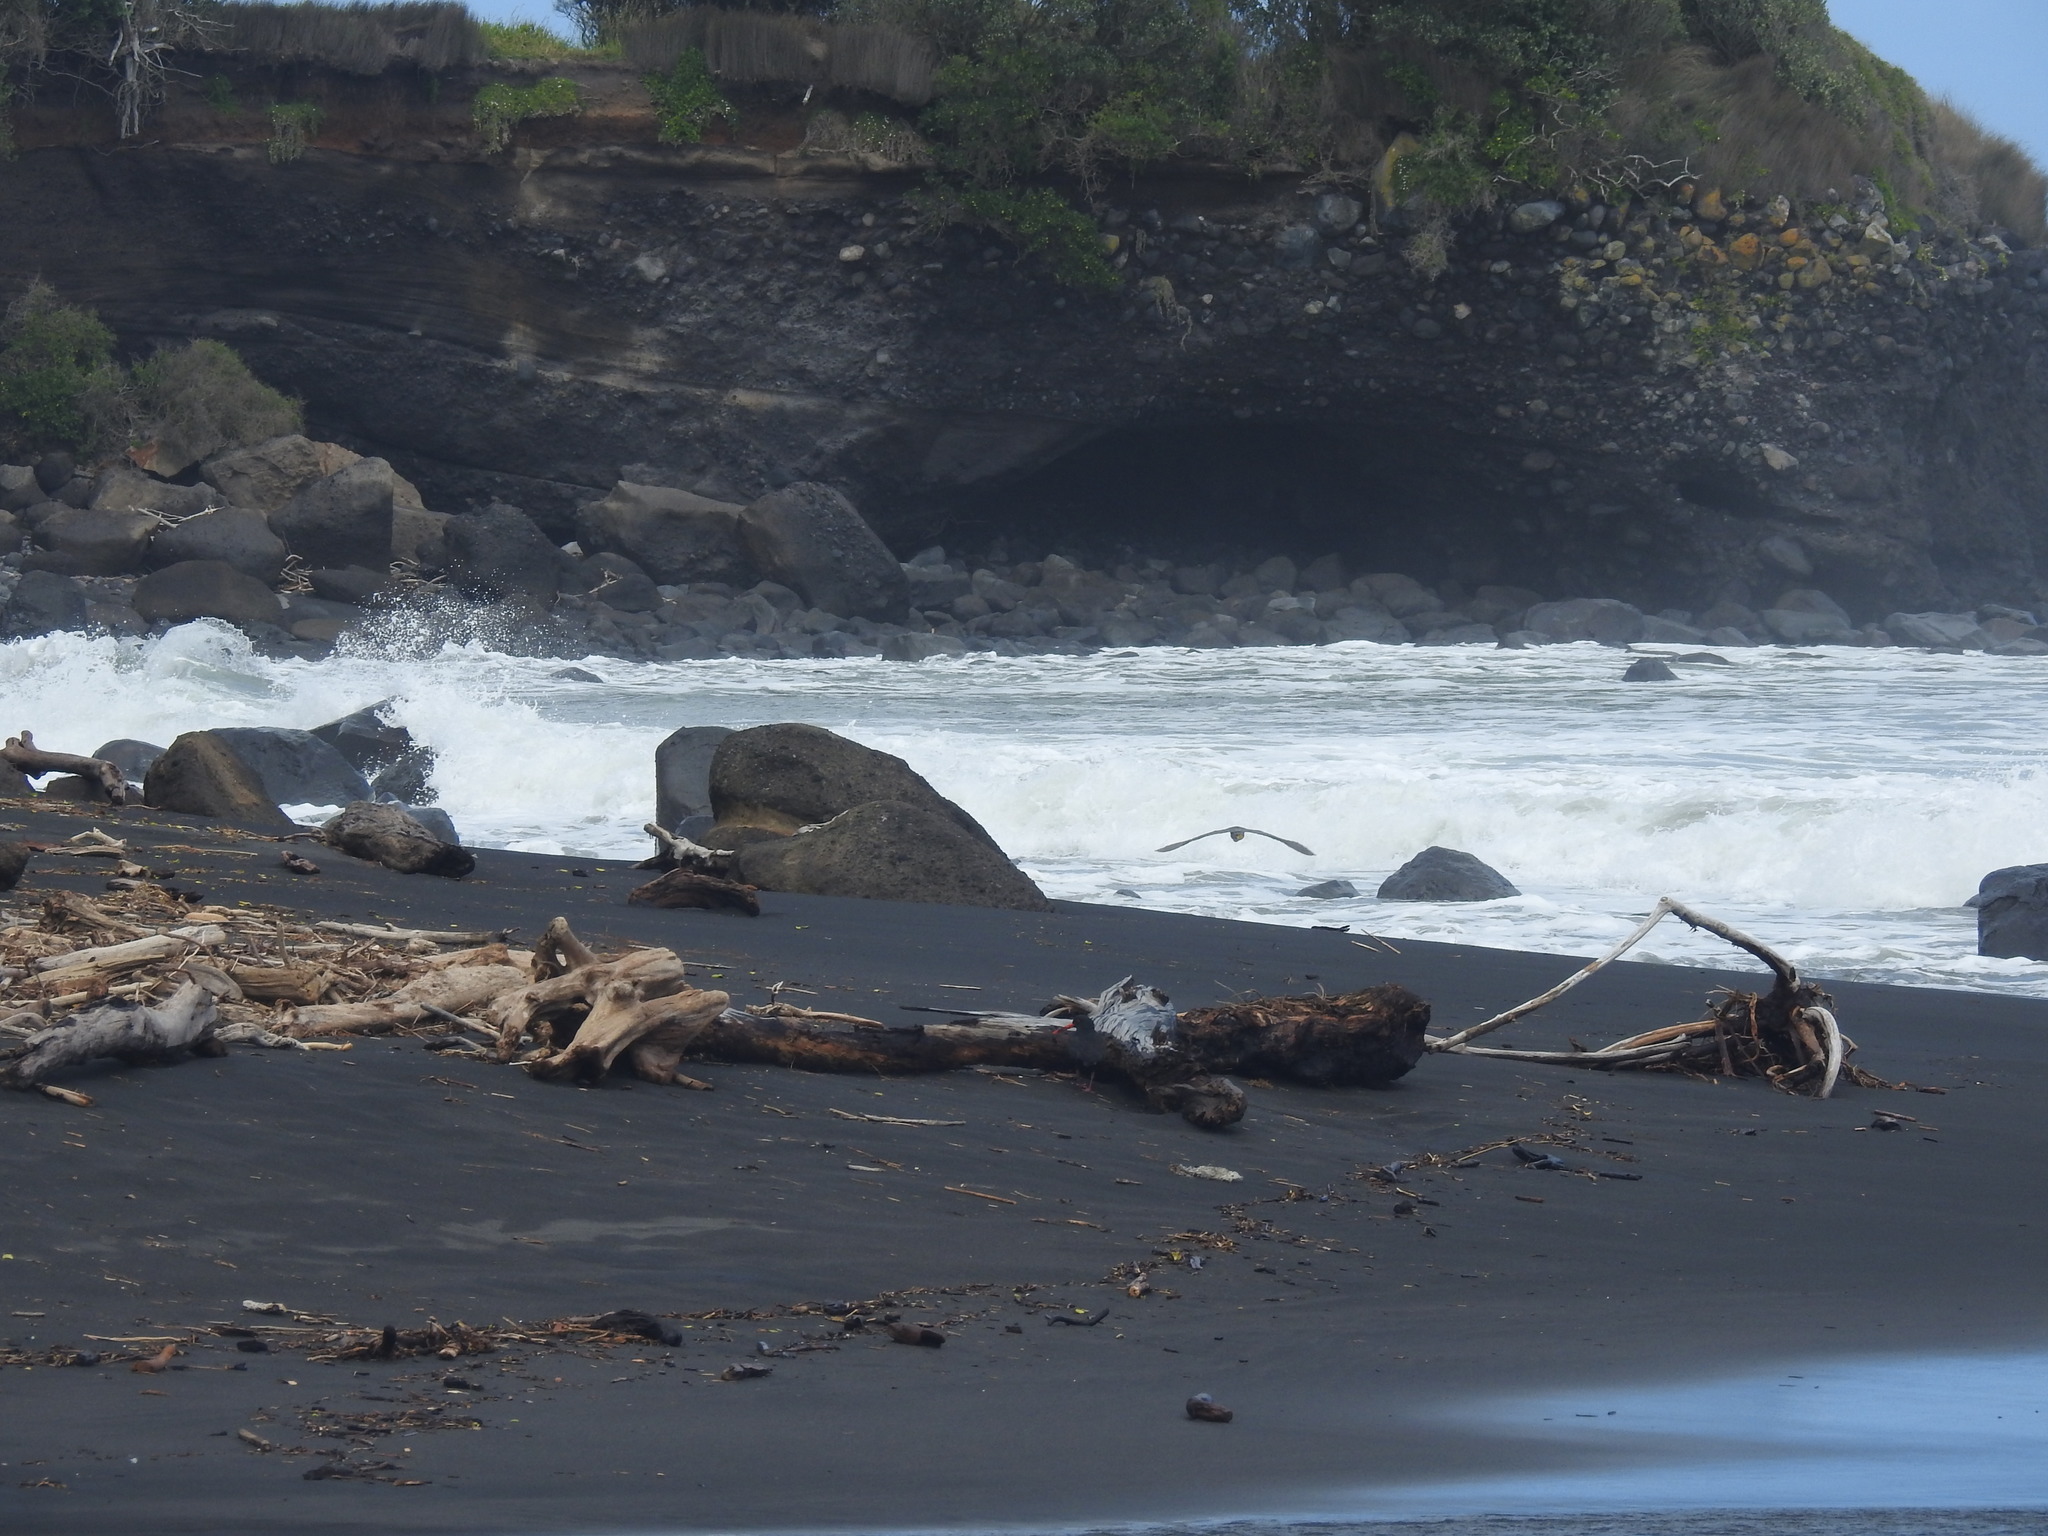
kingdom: Animalia
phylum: Chordata
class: Aves
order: Pelecaniformes
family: Ardeidae
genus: Egretta
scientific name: Egretta sacra
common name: Pacific reef heron
